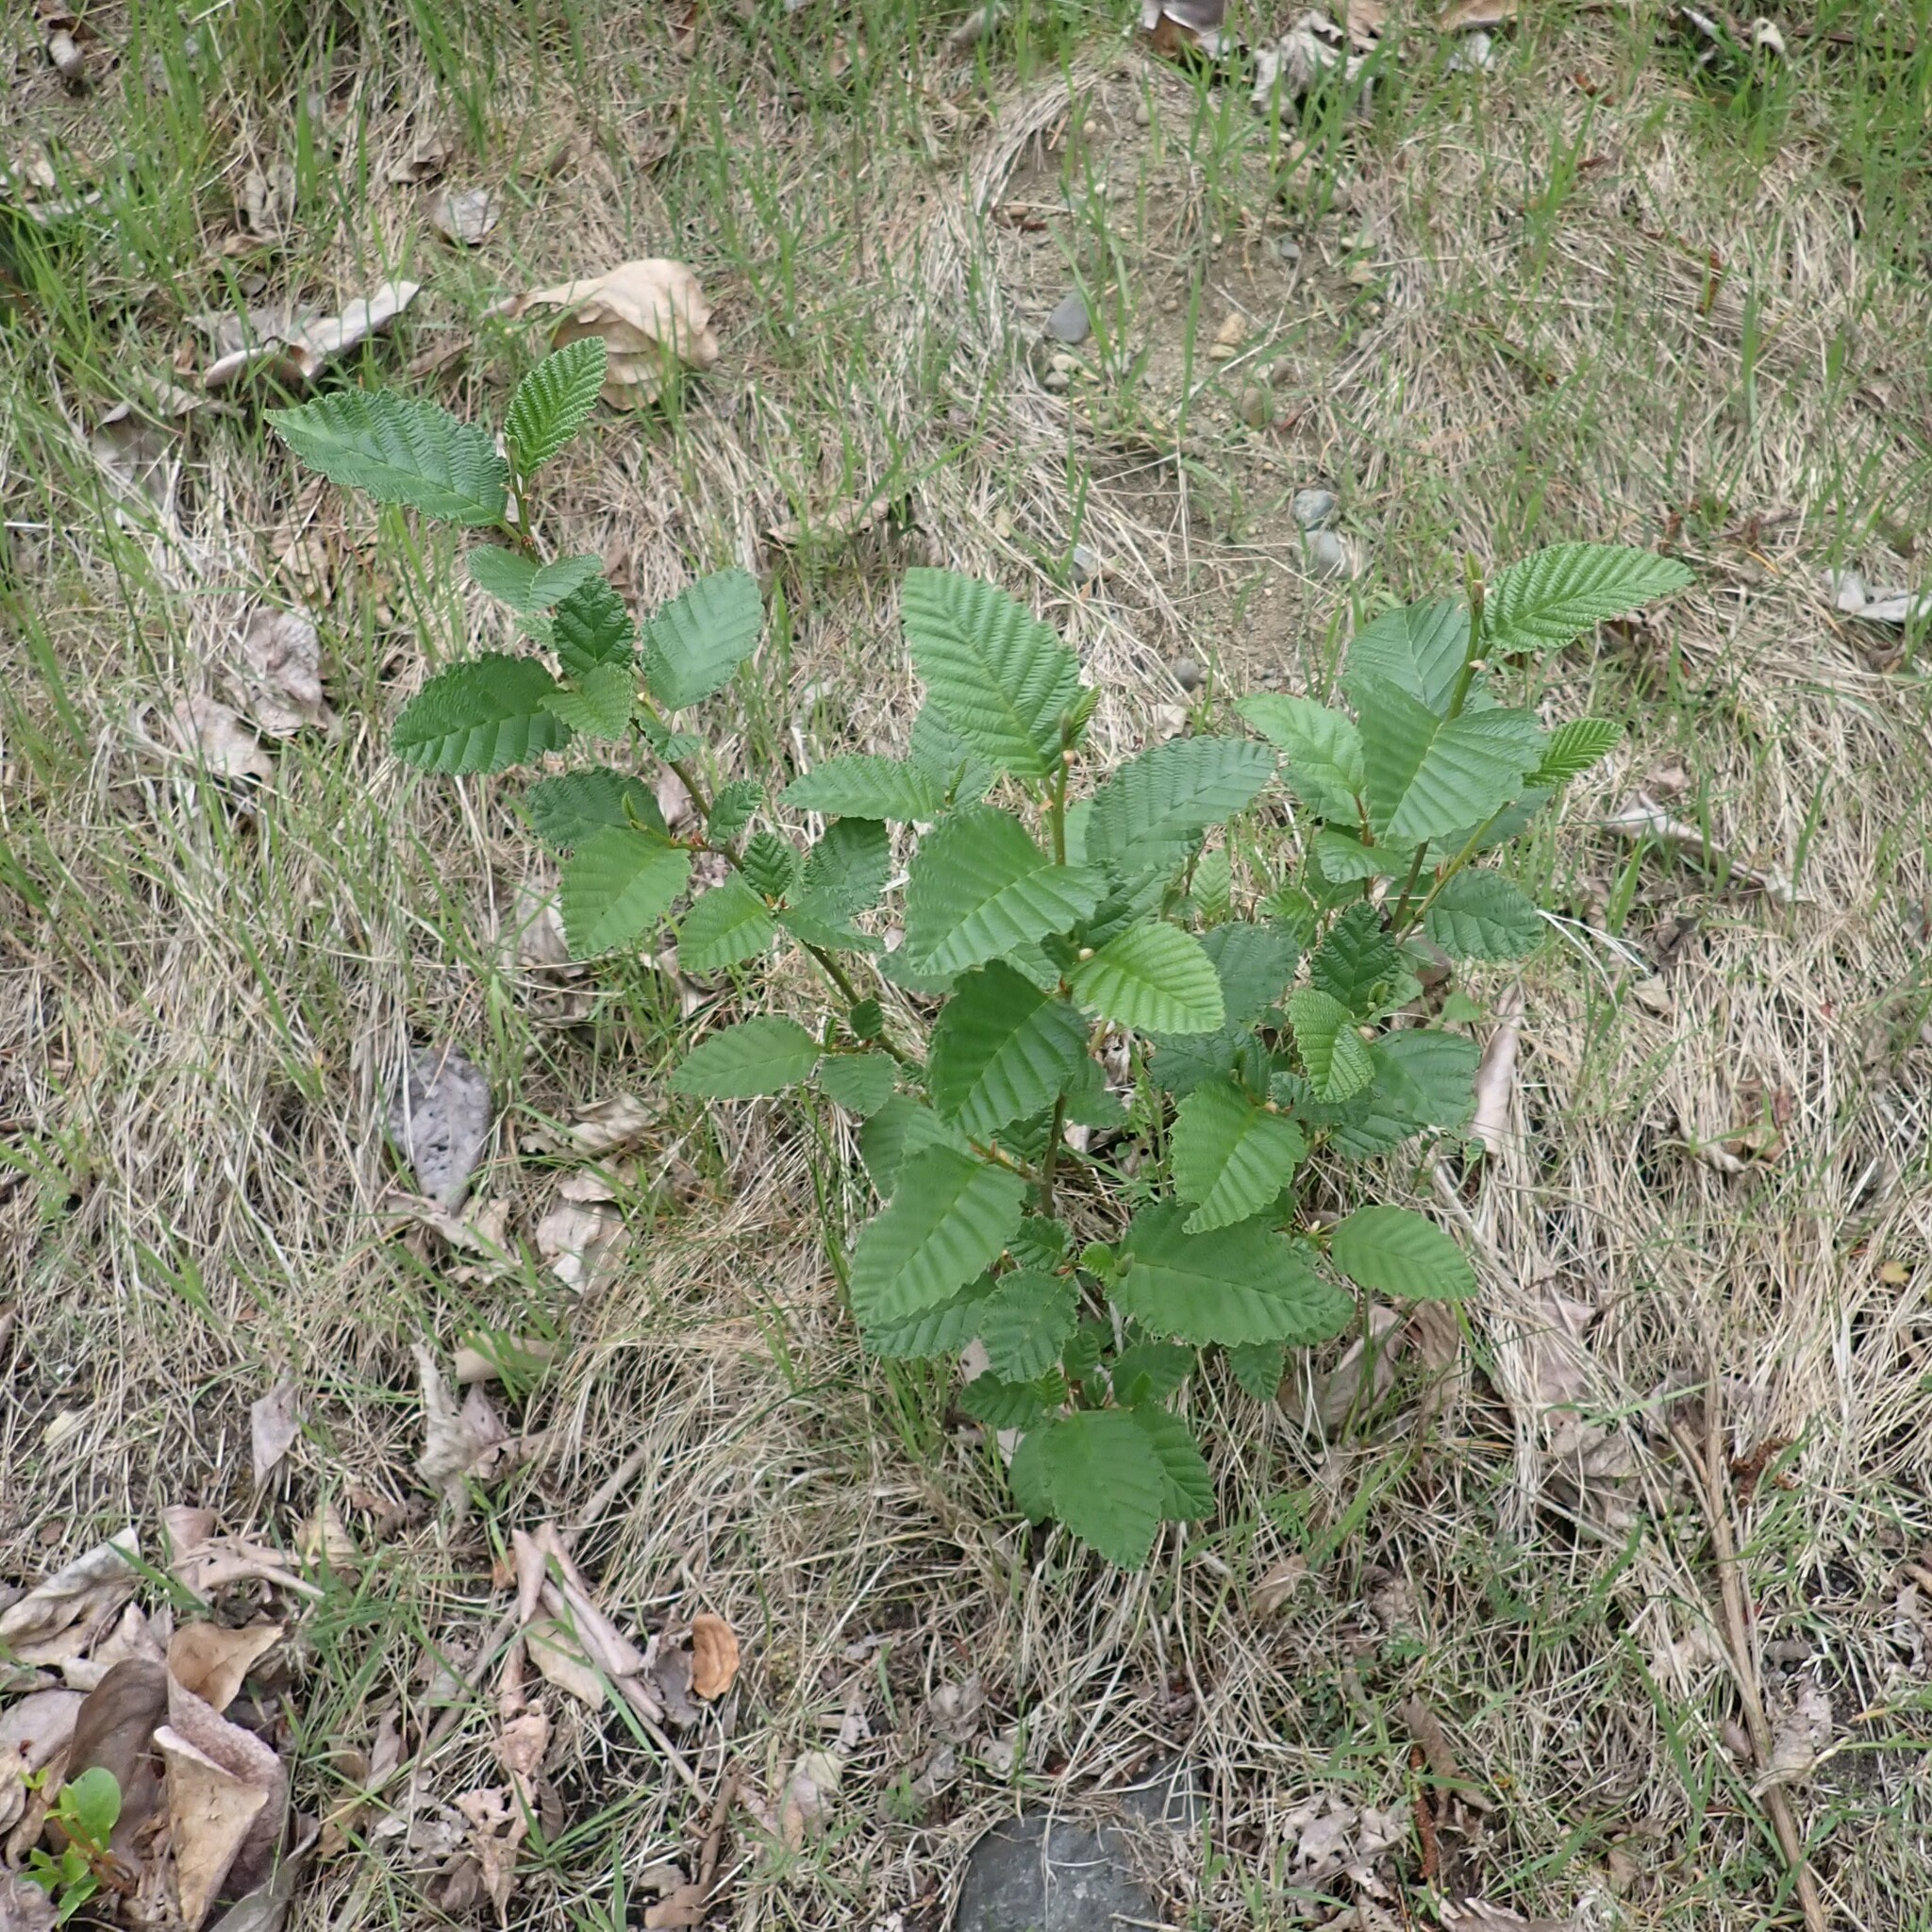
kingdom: Plantae
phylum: Tracheophyta
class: Magnoliopsida
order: Fagales
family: Betulaceae
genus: Alnus
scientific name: Alnus rubra
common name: Red alder
